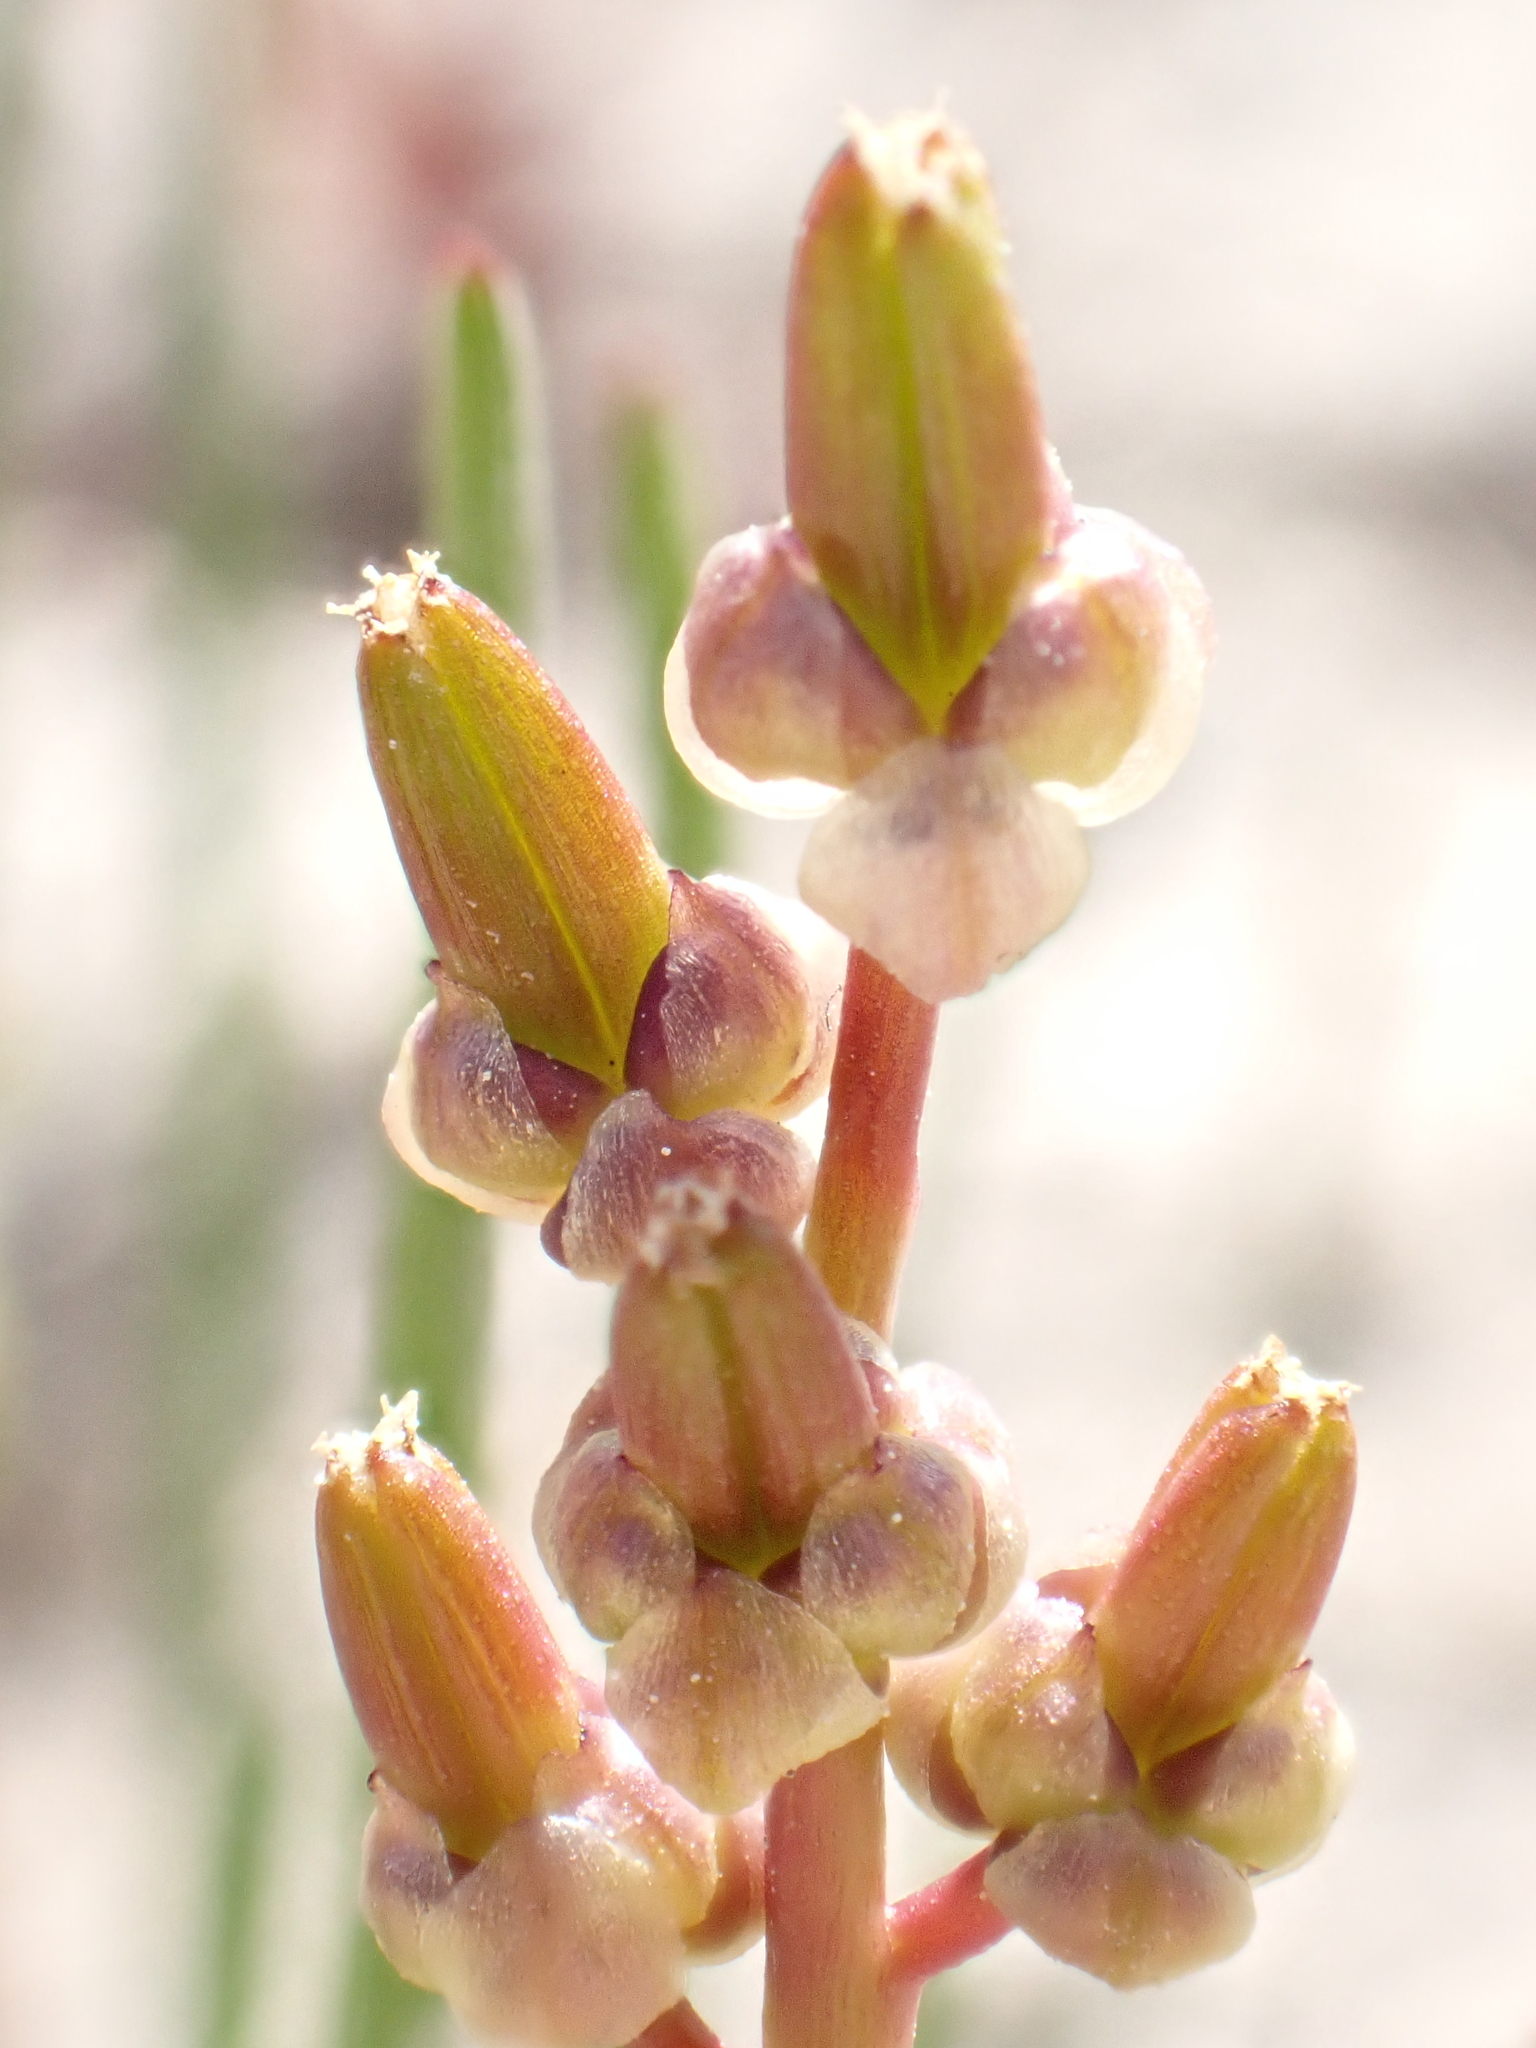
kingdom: Plantae
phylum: Tracheophyta
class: Liliopsida
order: Alismatales
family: Juncaginaceae
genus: Triglochin
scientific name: Triglochin barrelieri
